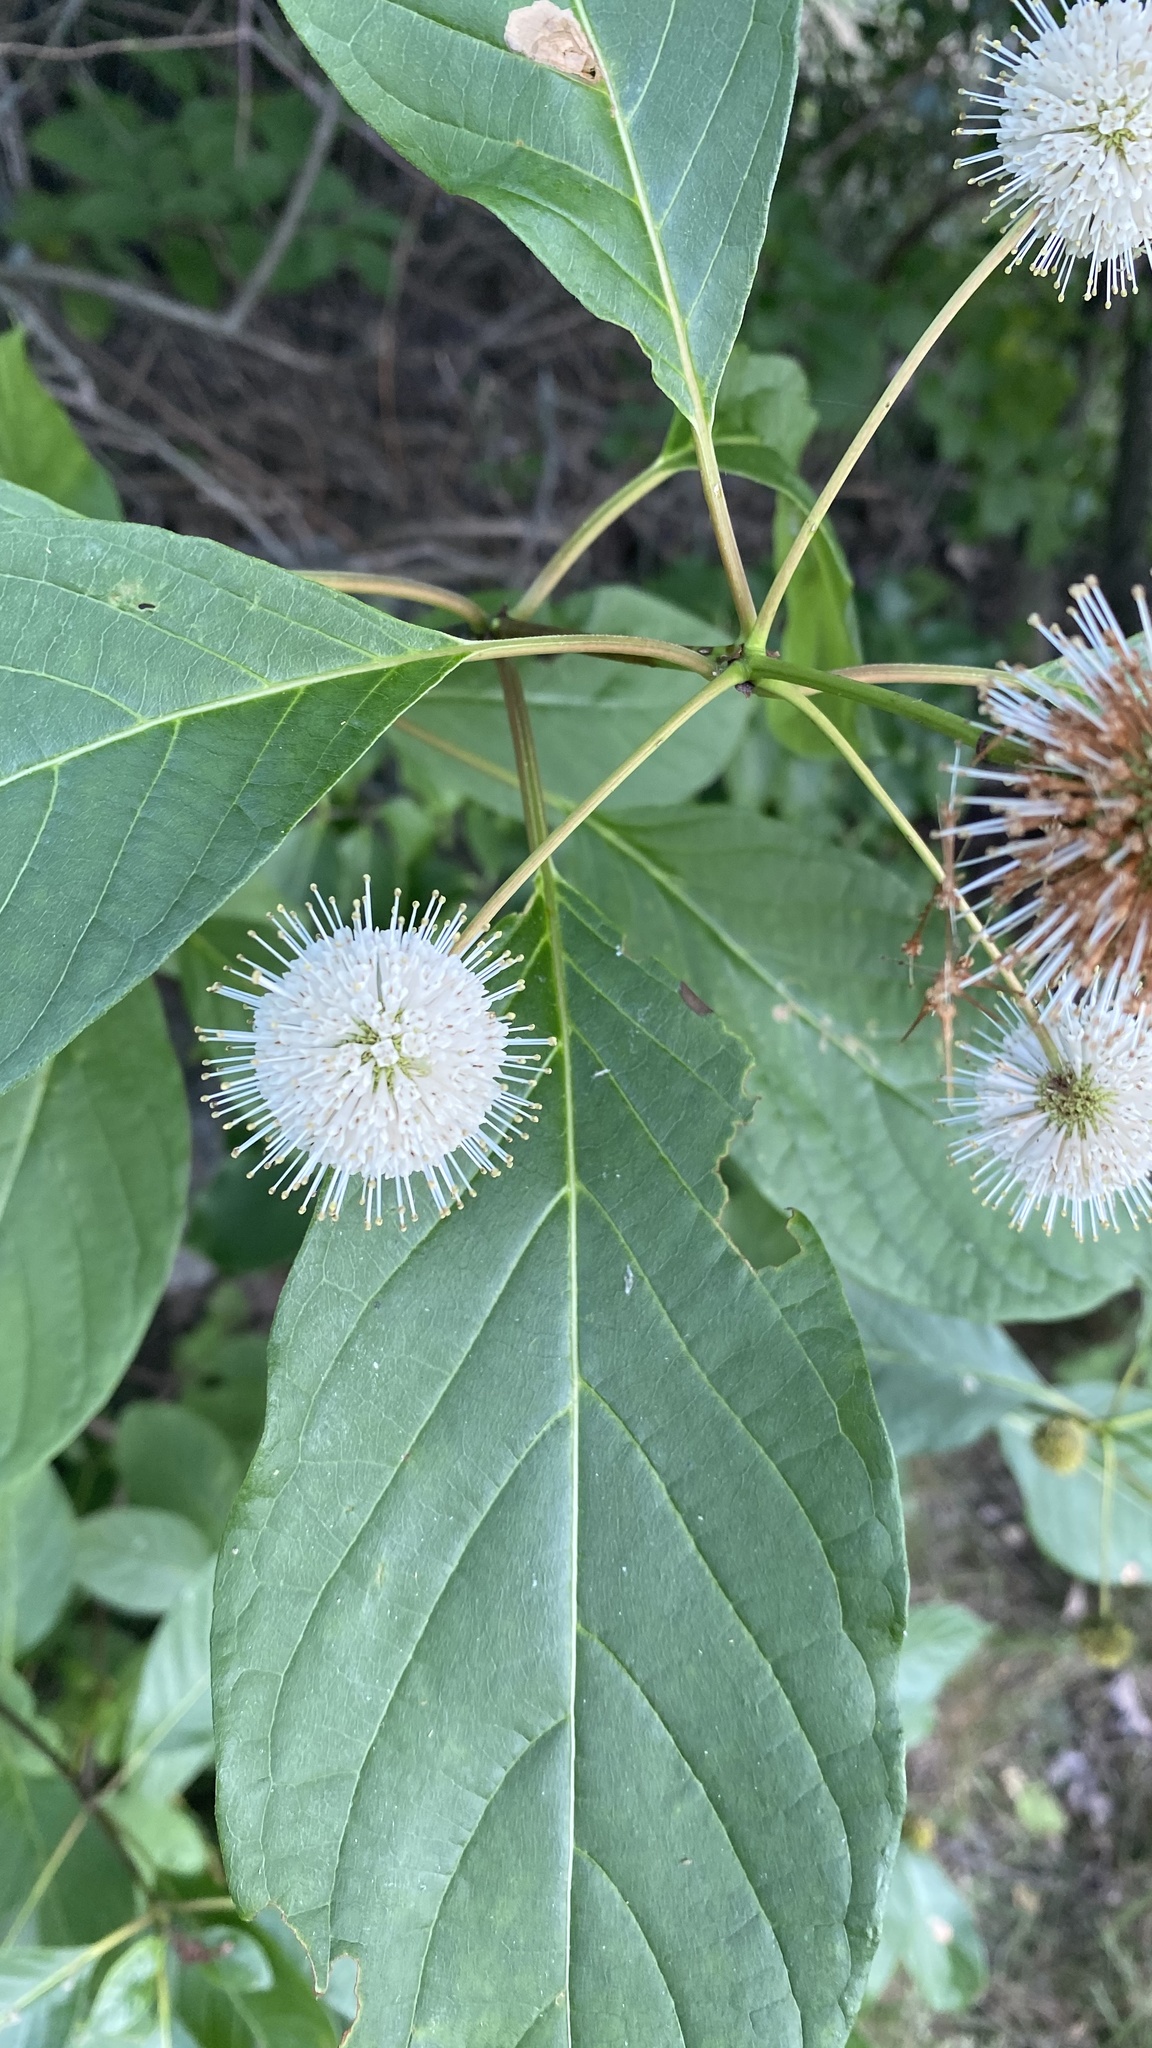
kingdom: Plantae
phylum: Tracheophyta
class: Magnoliopsida
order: Gentianales
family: Rubiaceae
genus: Cephalanthus
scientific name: Cephalanthus occidentalis
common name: Button-willow
